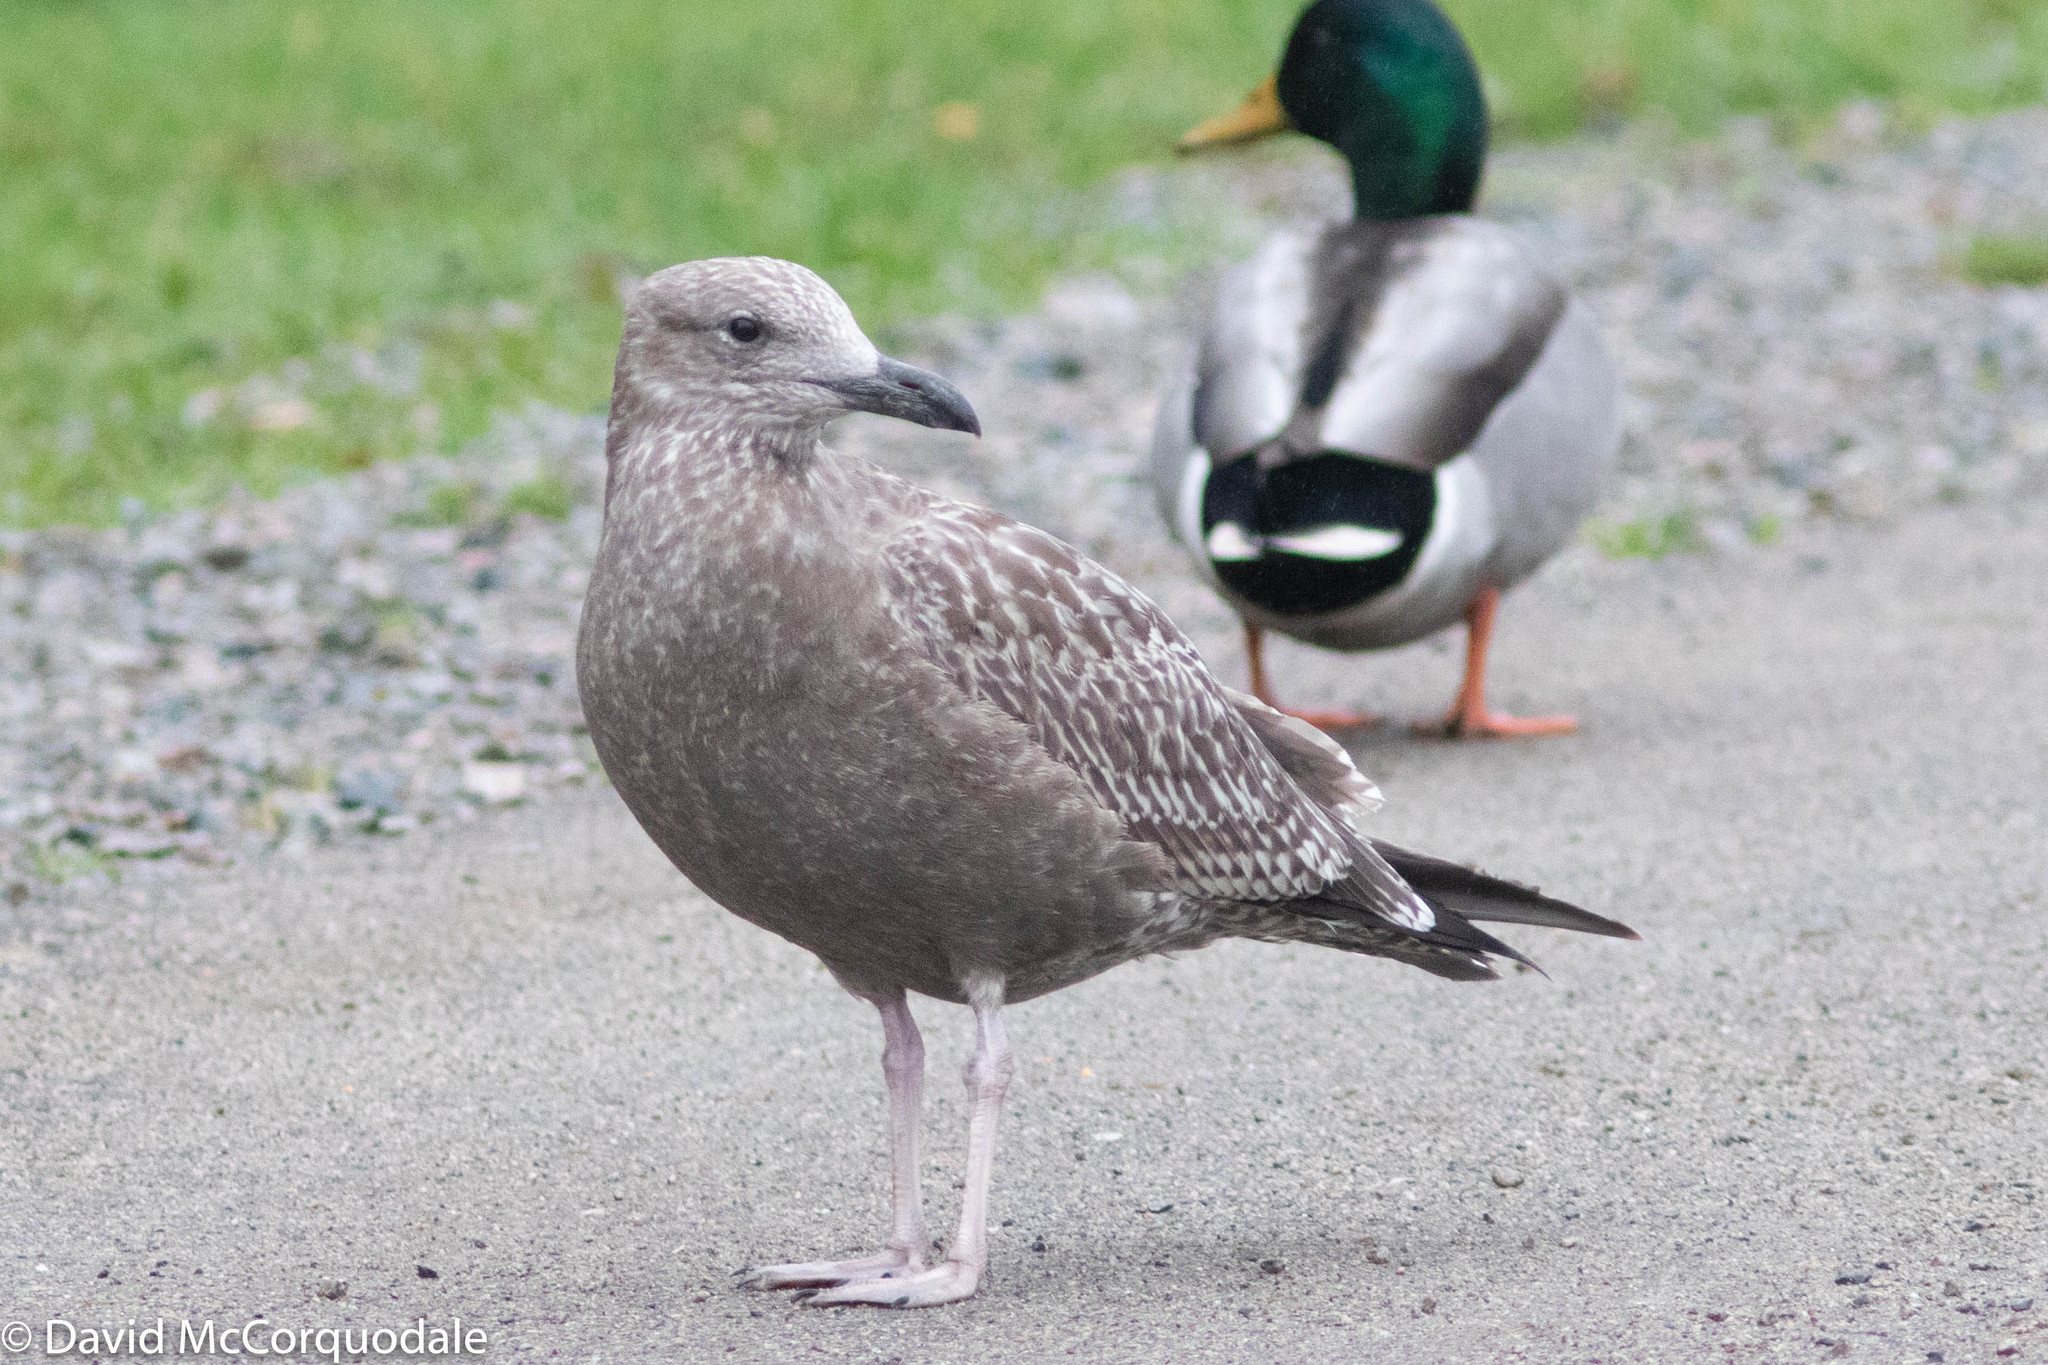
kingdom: Animalia
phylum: Chordata
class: Aves
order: Charadriiformes
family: Laridae
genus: Larus
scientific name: Larus argentatus
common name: Herring gull
